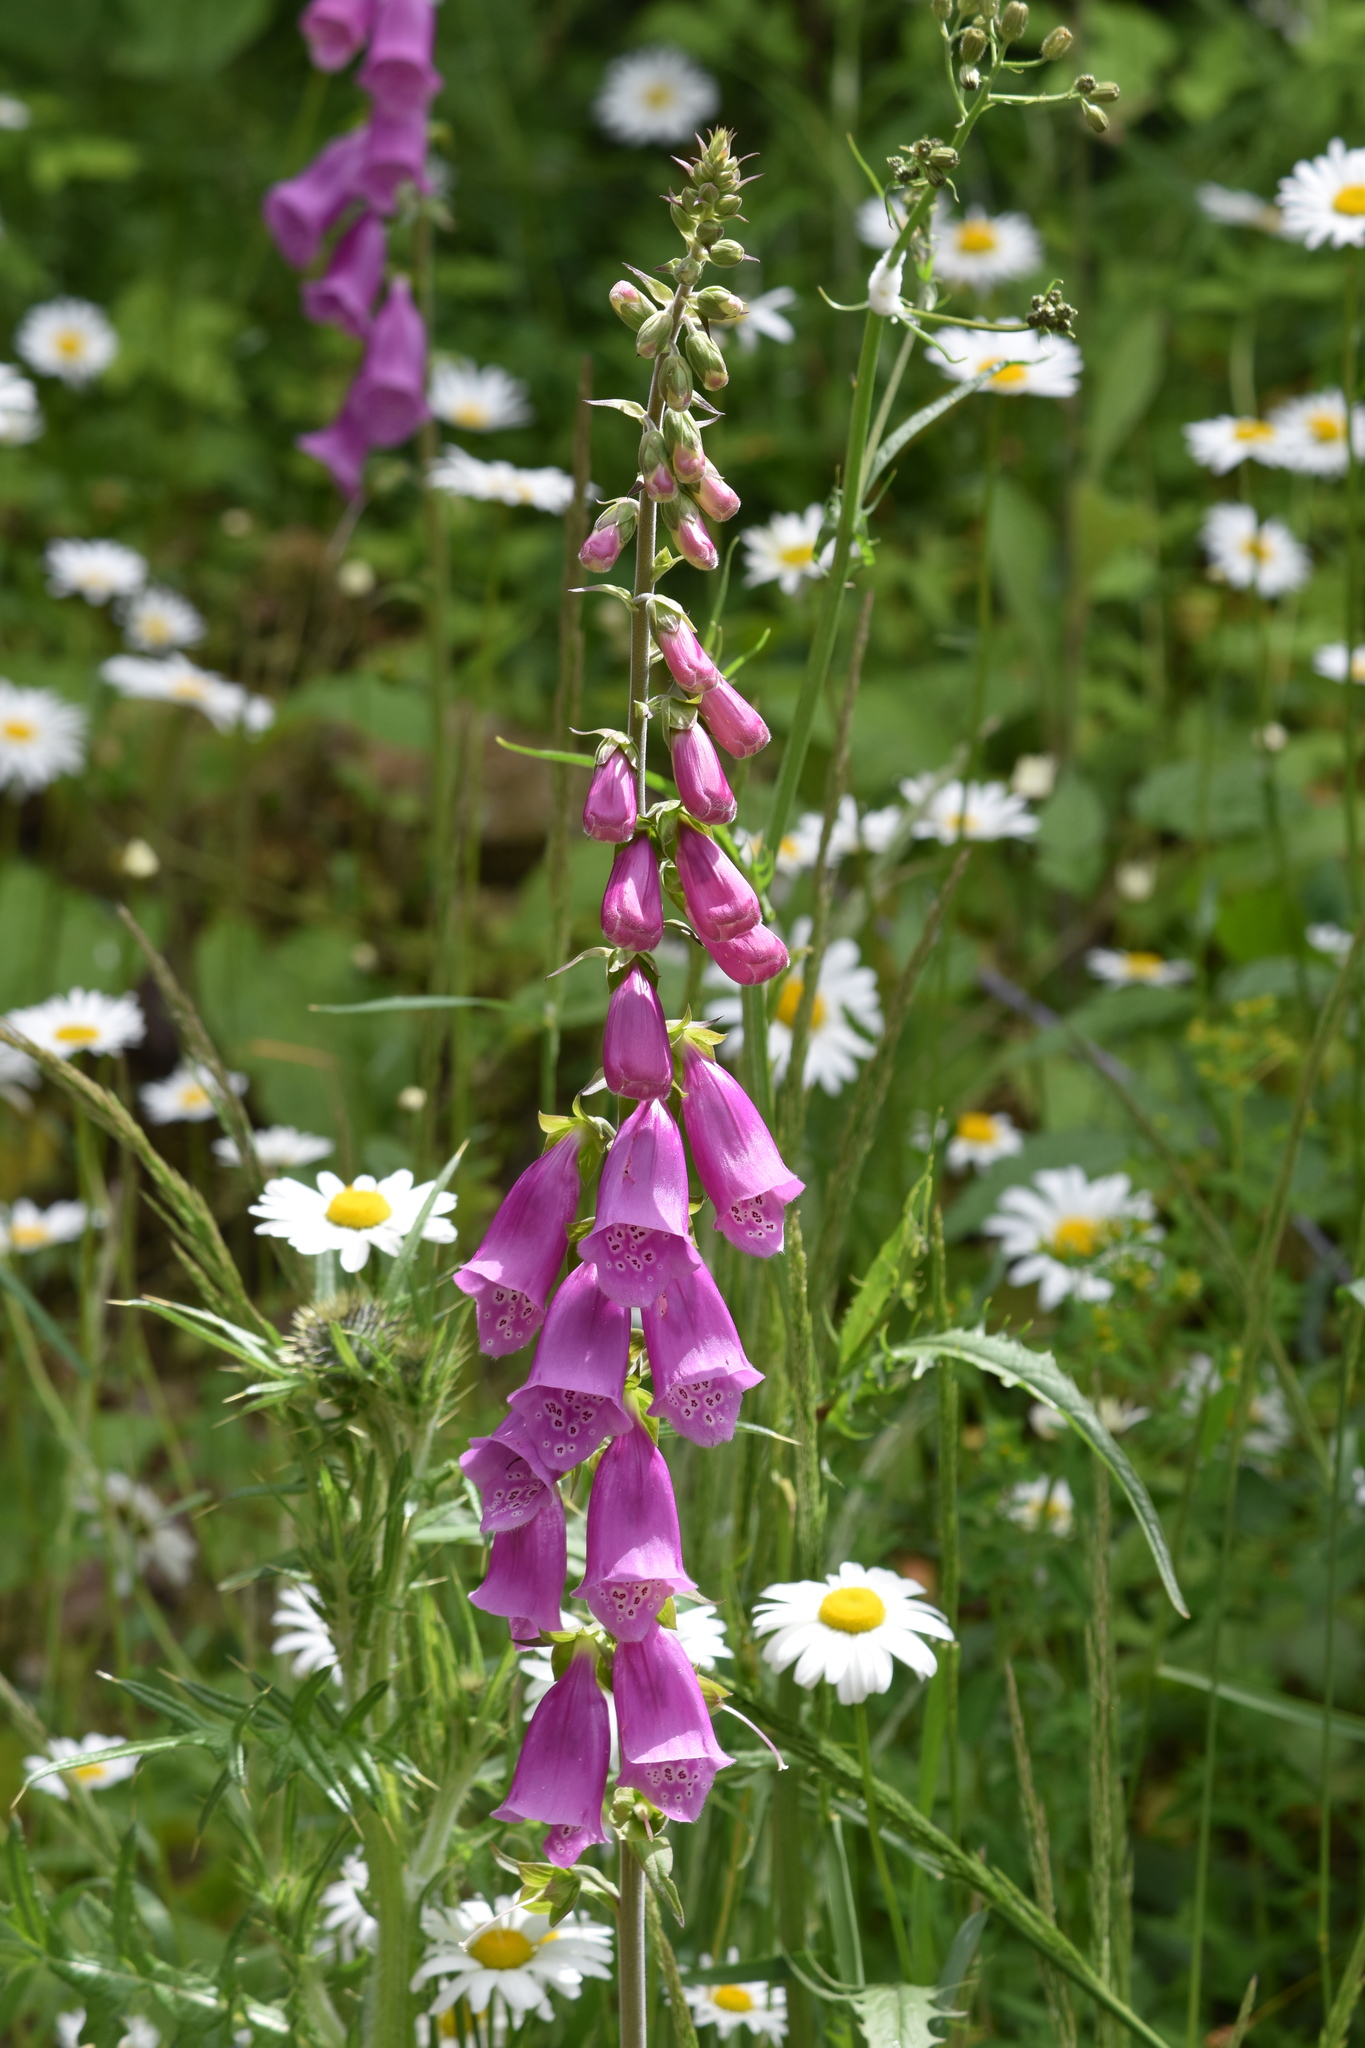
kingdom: Plantae
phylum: Tracheophyta
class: Magnoliopsida
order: Lamiales
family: Plantaginaceae
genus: Digitalis
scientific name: Digitalis purpurea
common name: Foxglove
